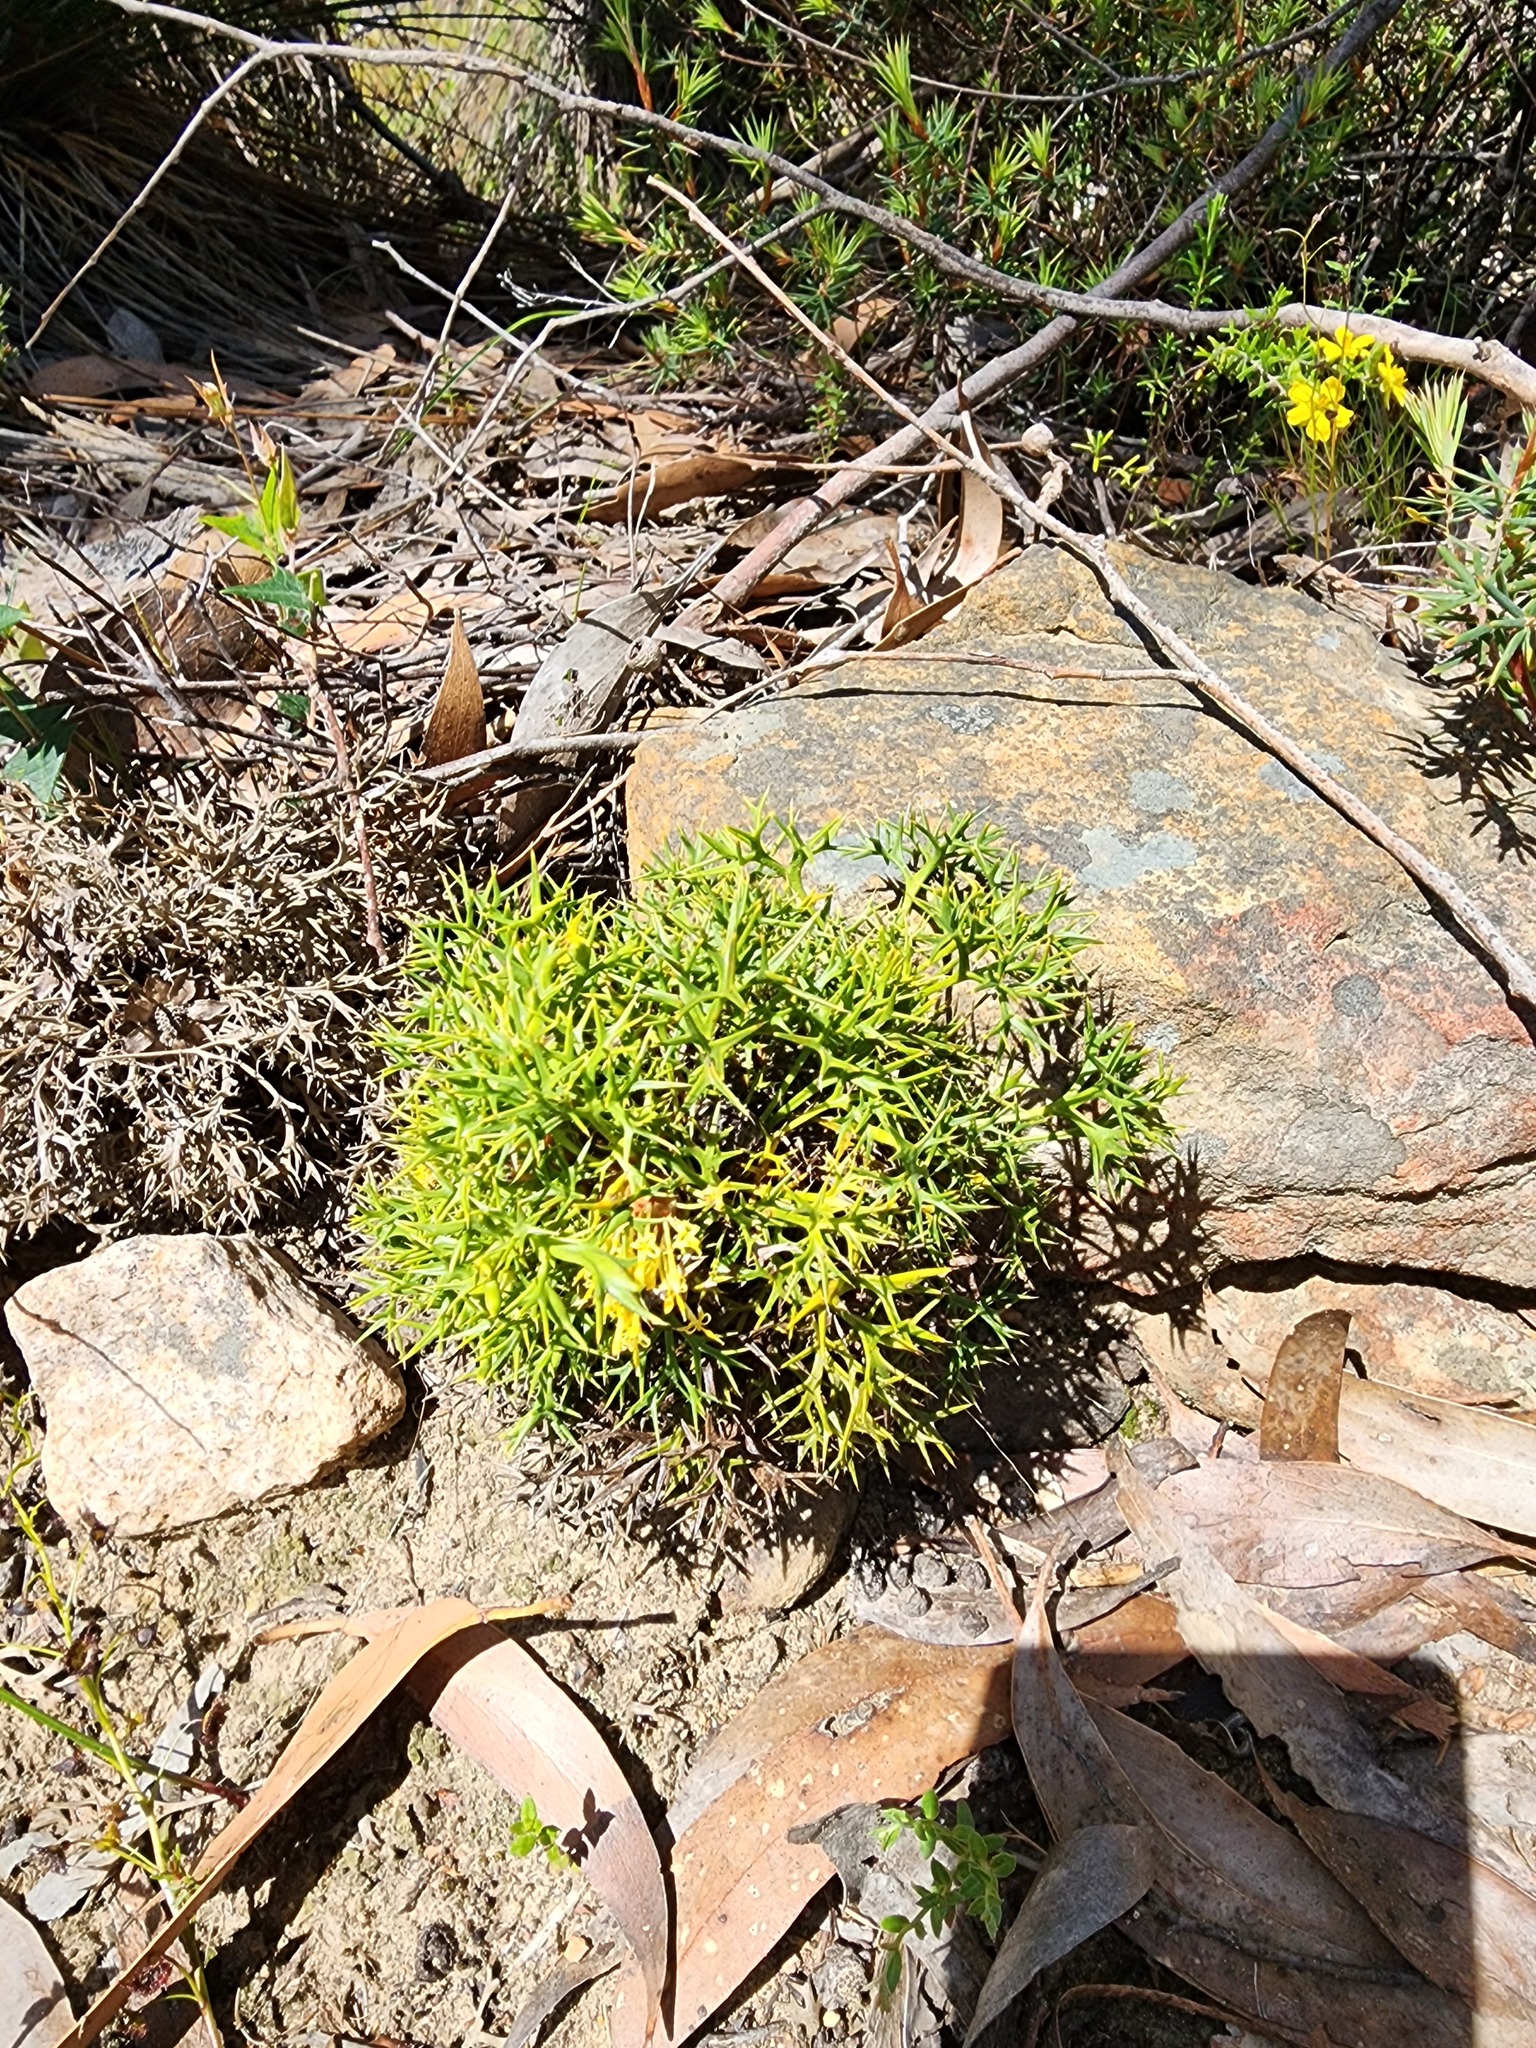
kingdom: Plantae
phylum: Tracheophyta
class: Magnoliopsida
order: Proteales
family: Proteaceae
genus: Isopogon
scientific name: Isopogon ceratophyllus
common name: Horny cone-bush
